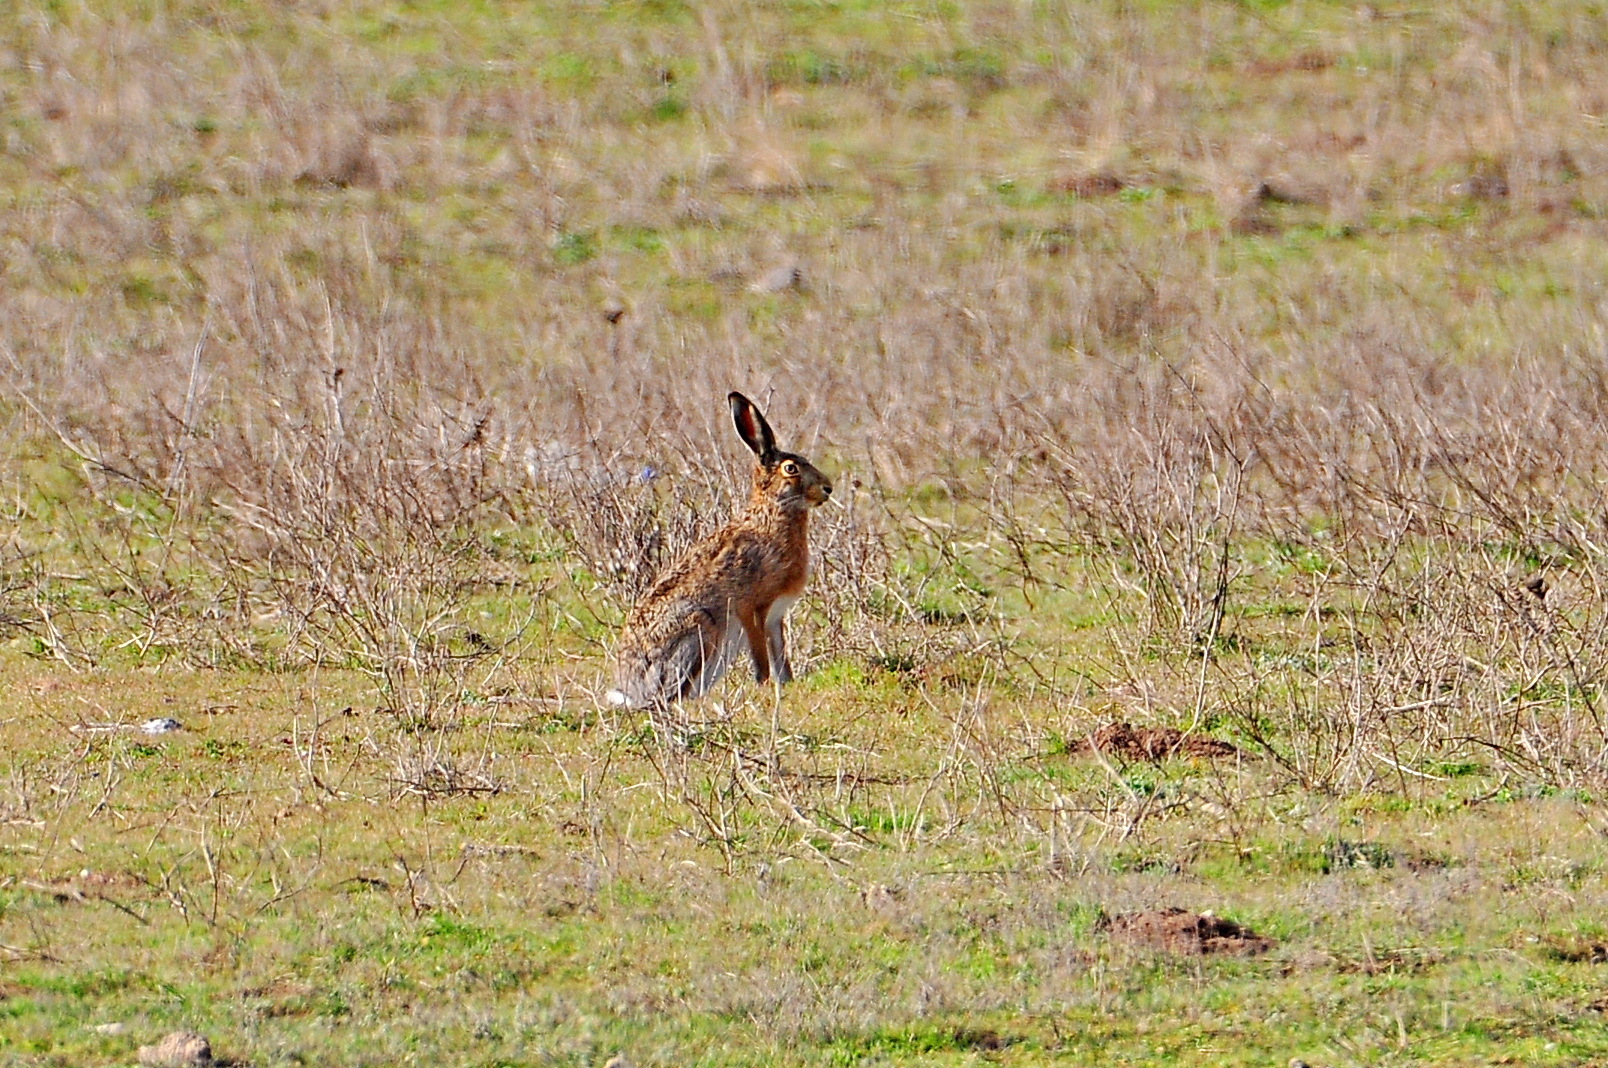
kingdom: Animalia
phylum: Chordata
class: Mammalia
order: Lagomorpha
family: Leporidae
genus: Lepus
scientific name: Lepus europaeus
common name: European hare
